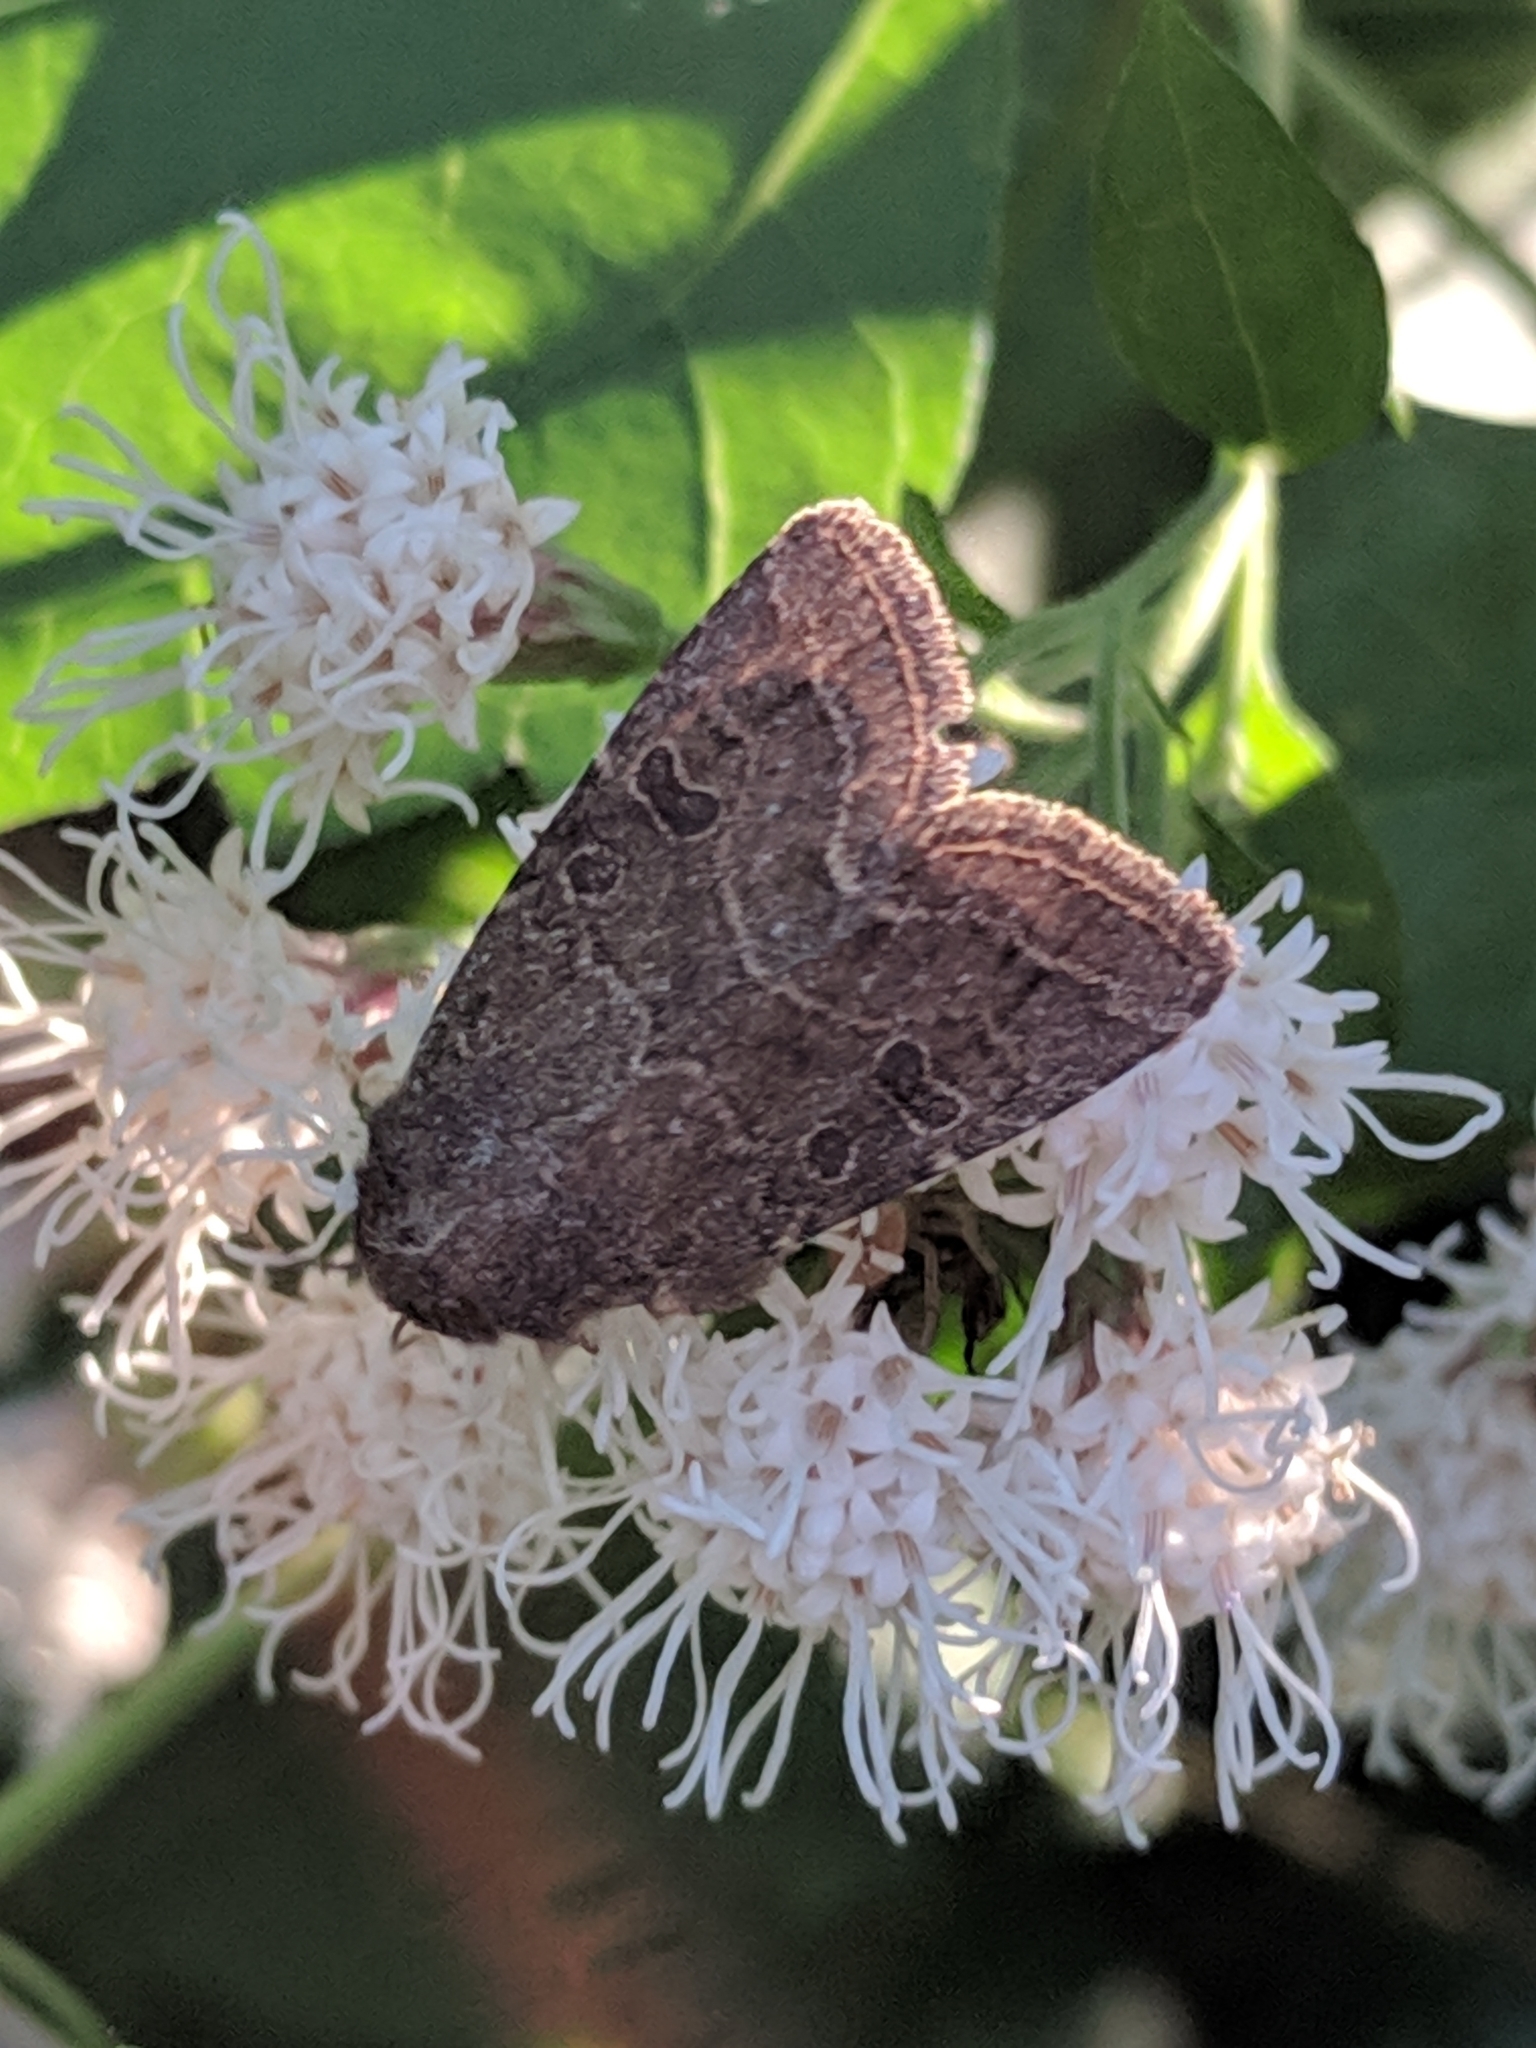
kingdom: Animalia
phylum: Arthropoda
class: Insecta
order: Lepidoptera
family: Noctuidae
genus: Trichopolia
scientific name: Trichopolia
